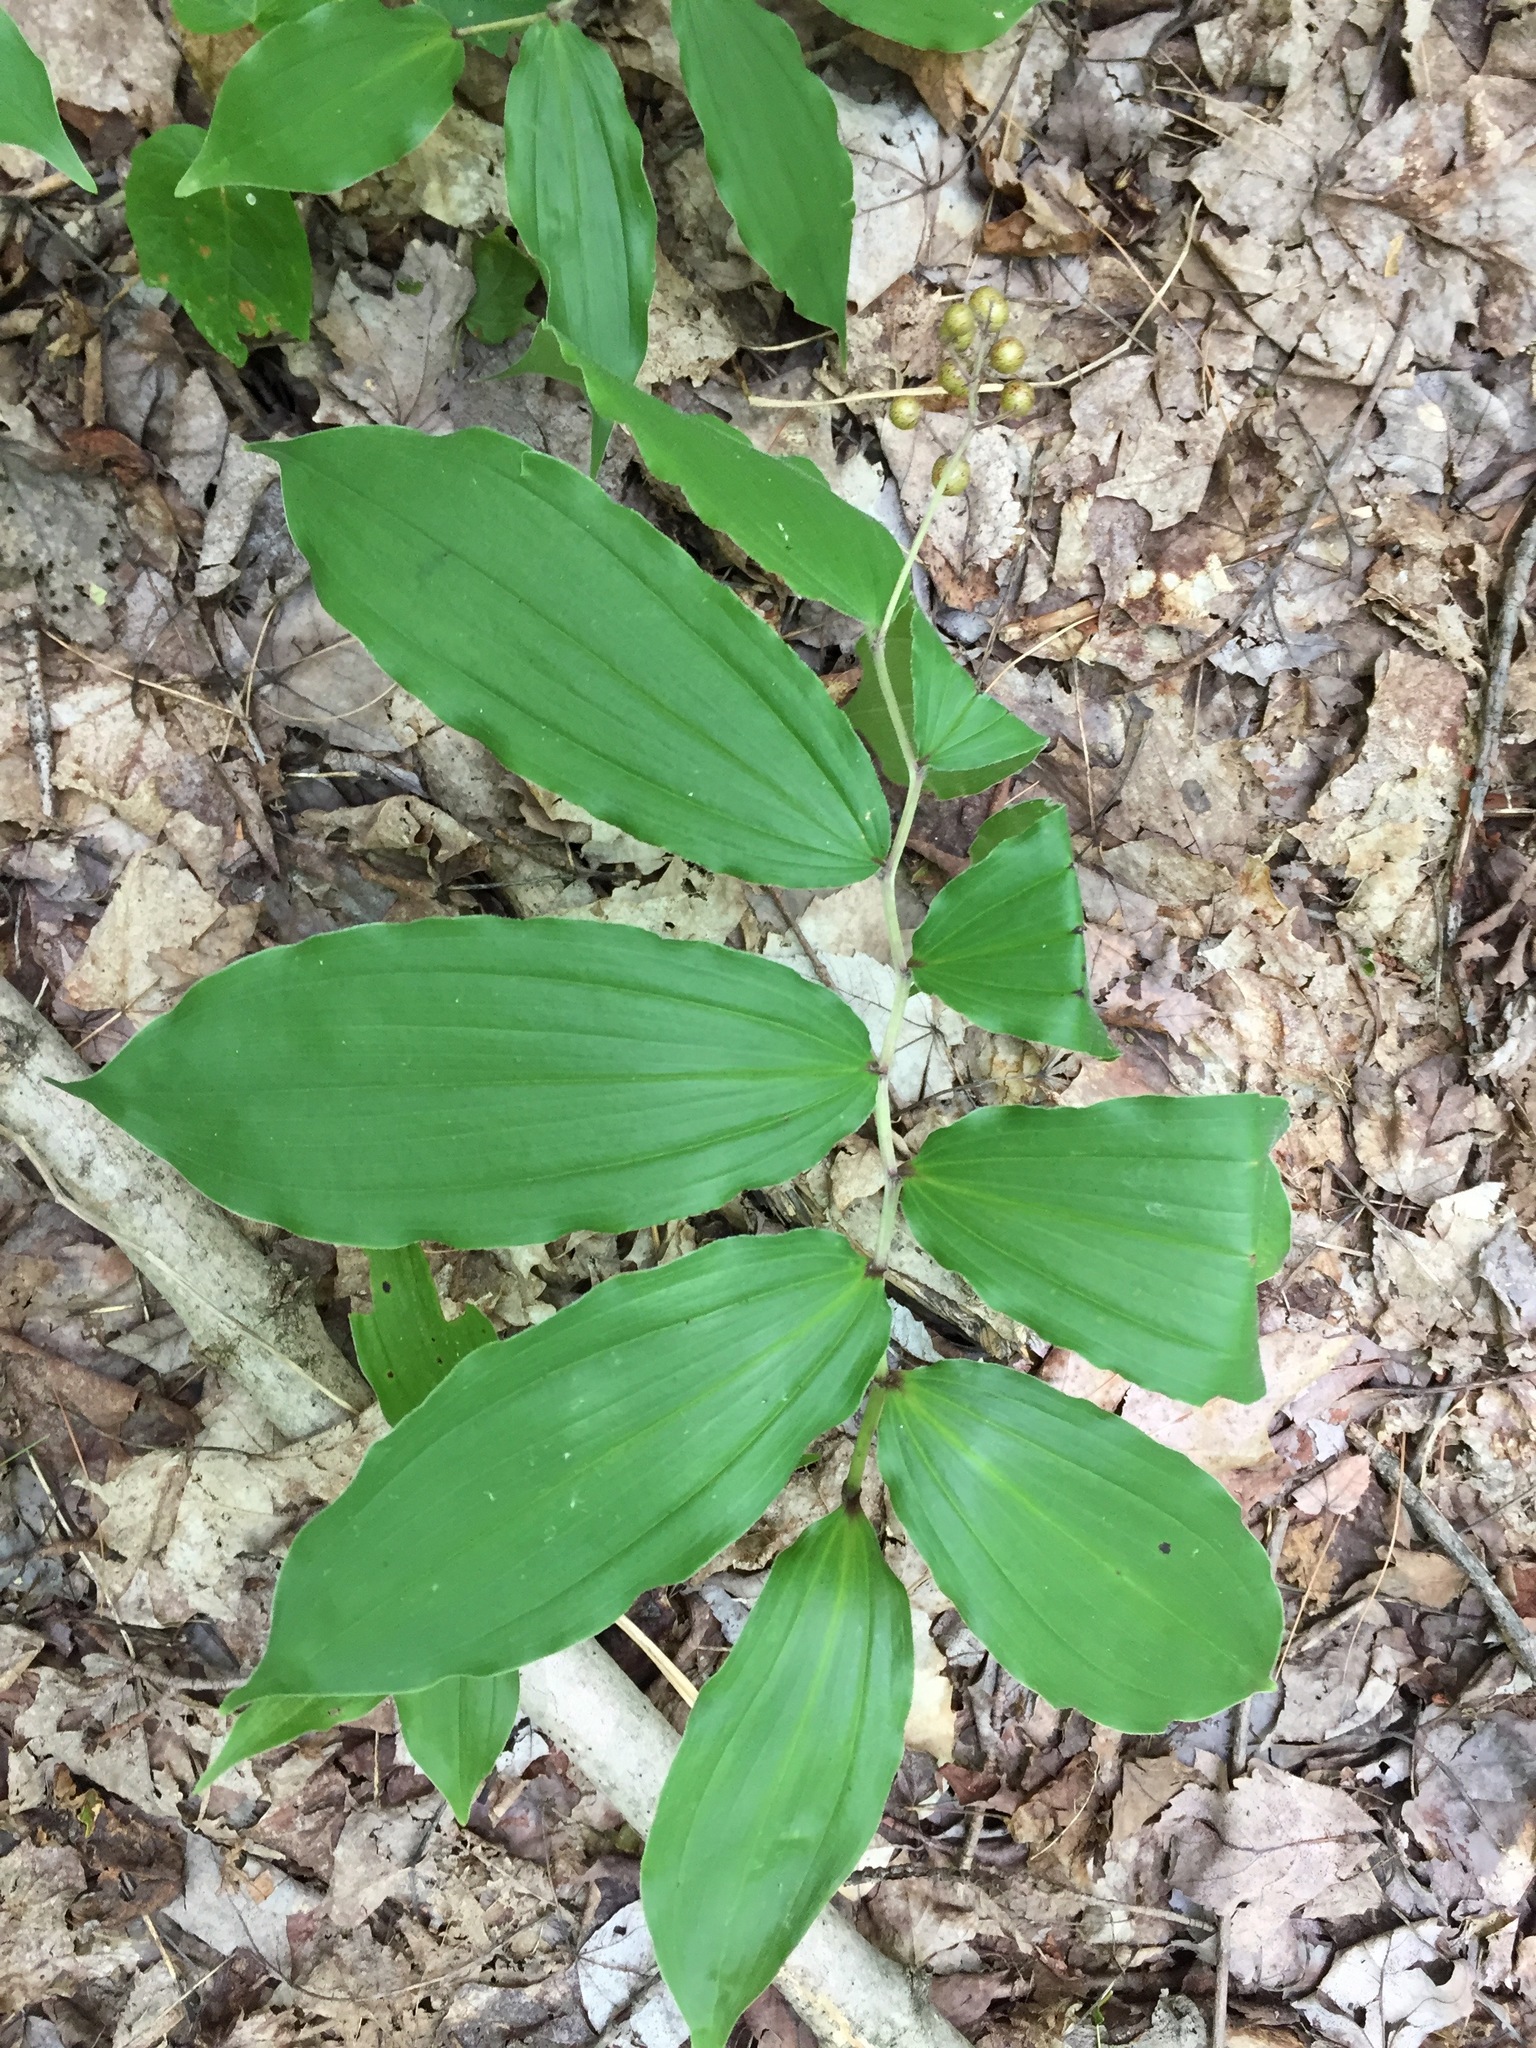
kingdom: Plantae
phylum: Tracheophyta
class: Liliopsida
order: Asparagales
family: Asparagaceae
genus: Maianthemum
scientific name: Maianthemum racemosum
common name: False spikenard
